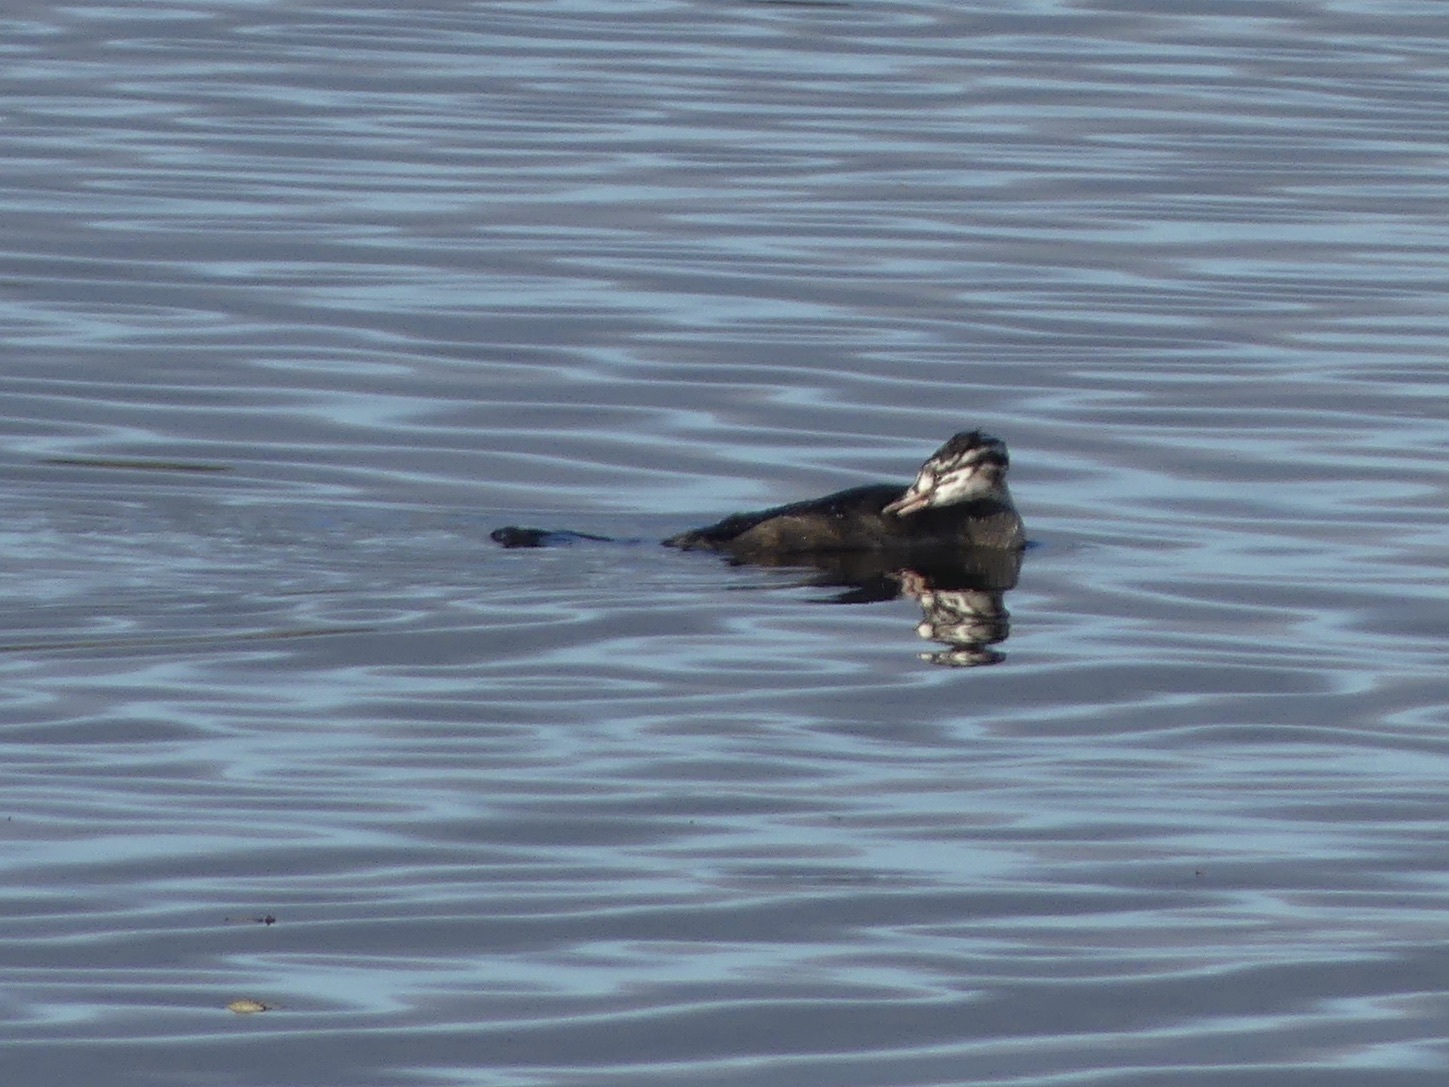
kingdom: Animalia
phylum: Chordata
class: Aves
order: Podicipediformes
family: Podicipedidae
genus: Podiceps
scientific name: Podiceps cristatus
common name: Great crested grebe
